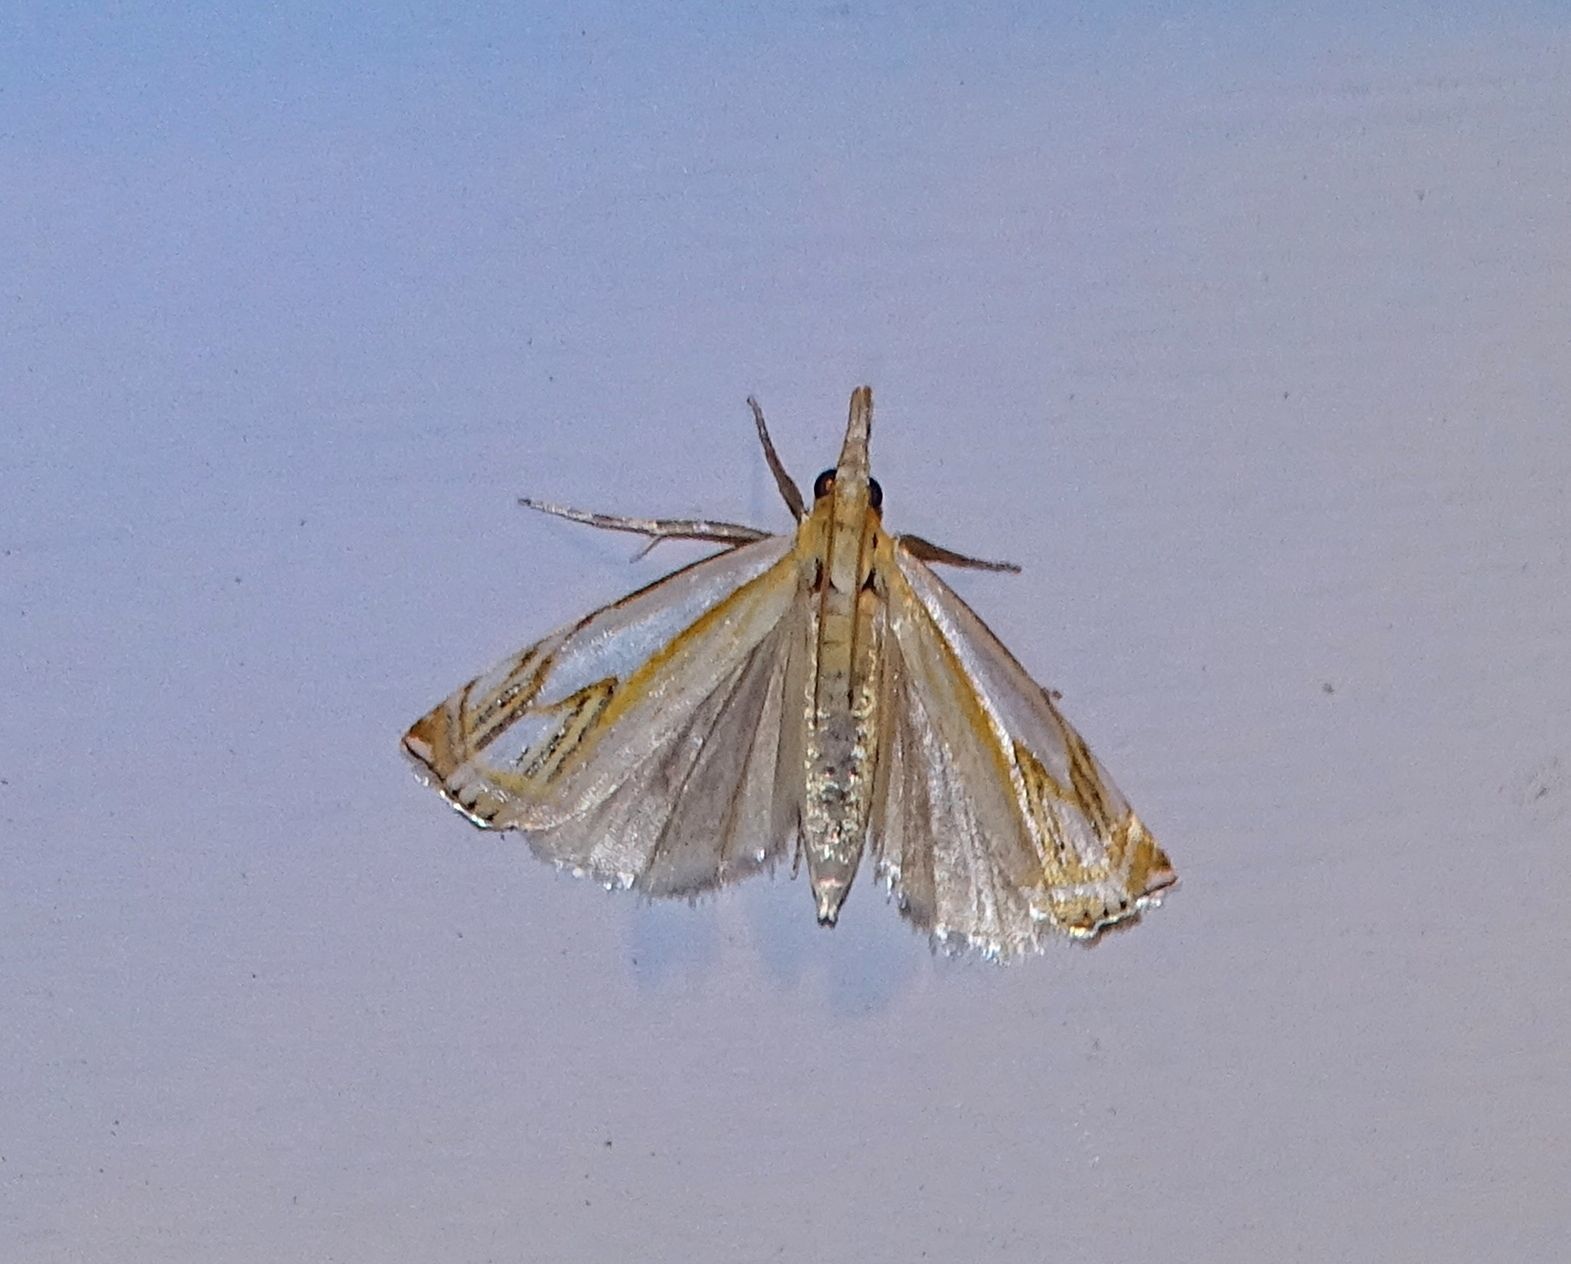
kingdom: Animalia
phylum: Arthropoda
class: Insecta
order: Lepidoptera
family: Crambidae
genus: Crambus
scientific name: Crambus agitatellus
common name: Double-banded grass-veneer
